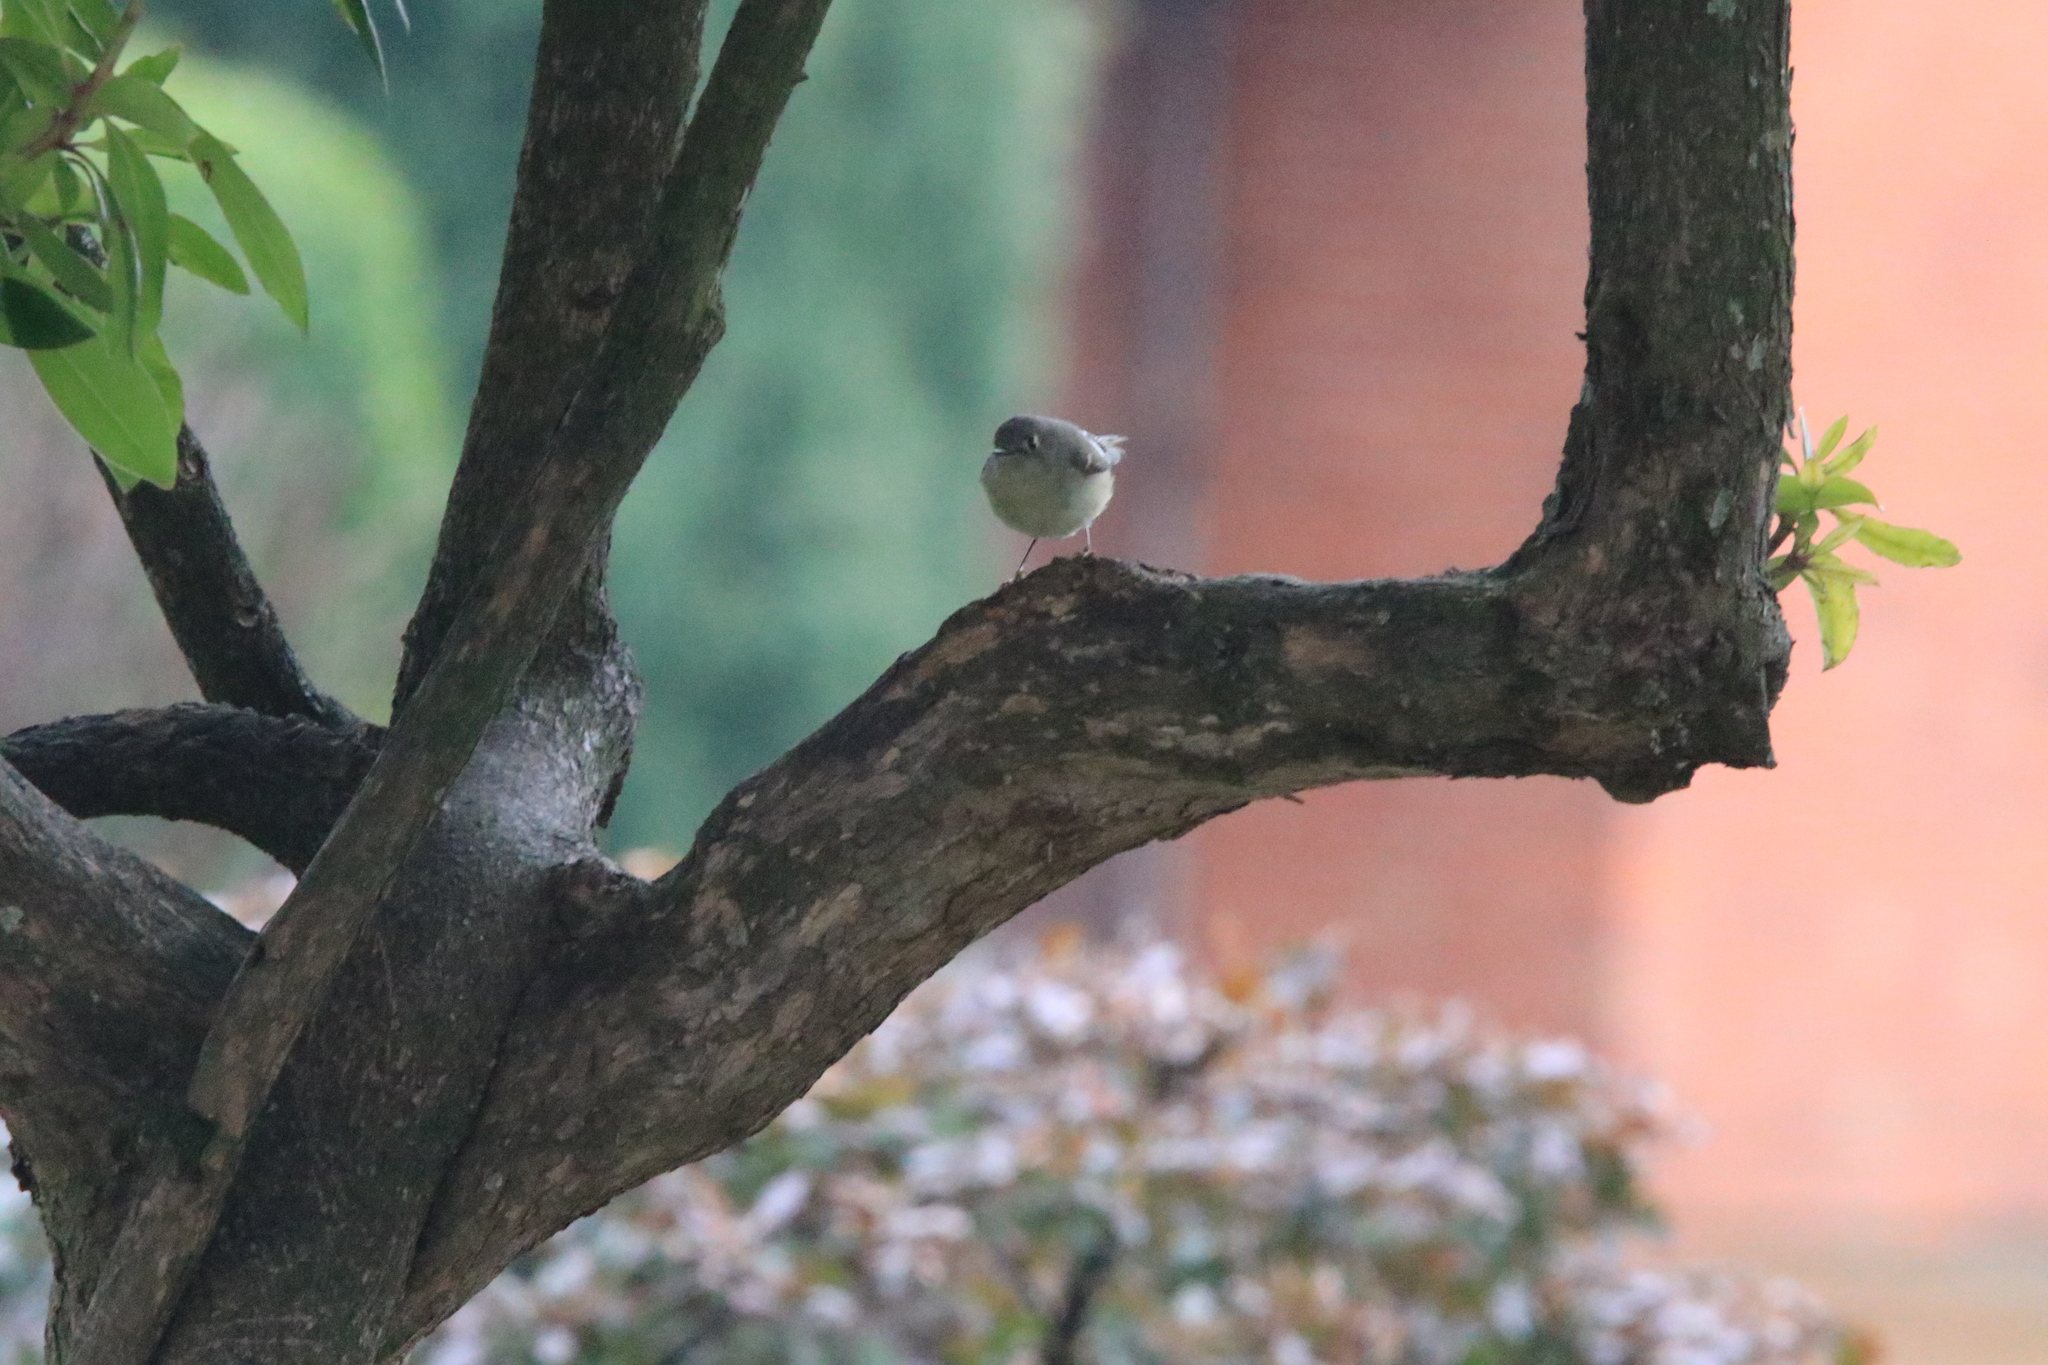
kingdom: Animalia
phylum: Chordata
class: Aves
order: Passeriformes
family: Regulidae
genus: Regulus
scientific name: Regulus calendula
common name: Ruby-crowned kinglet
